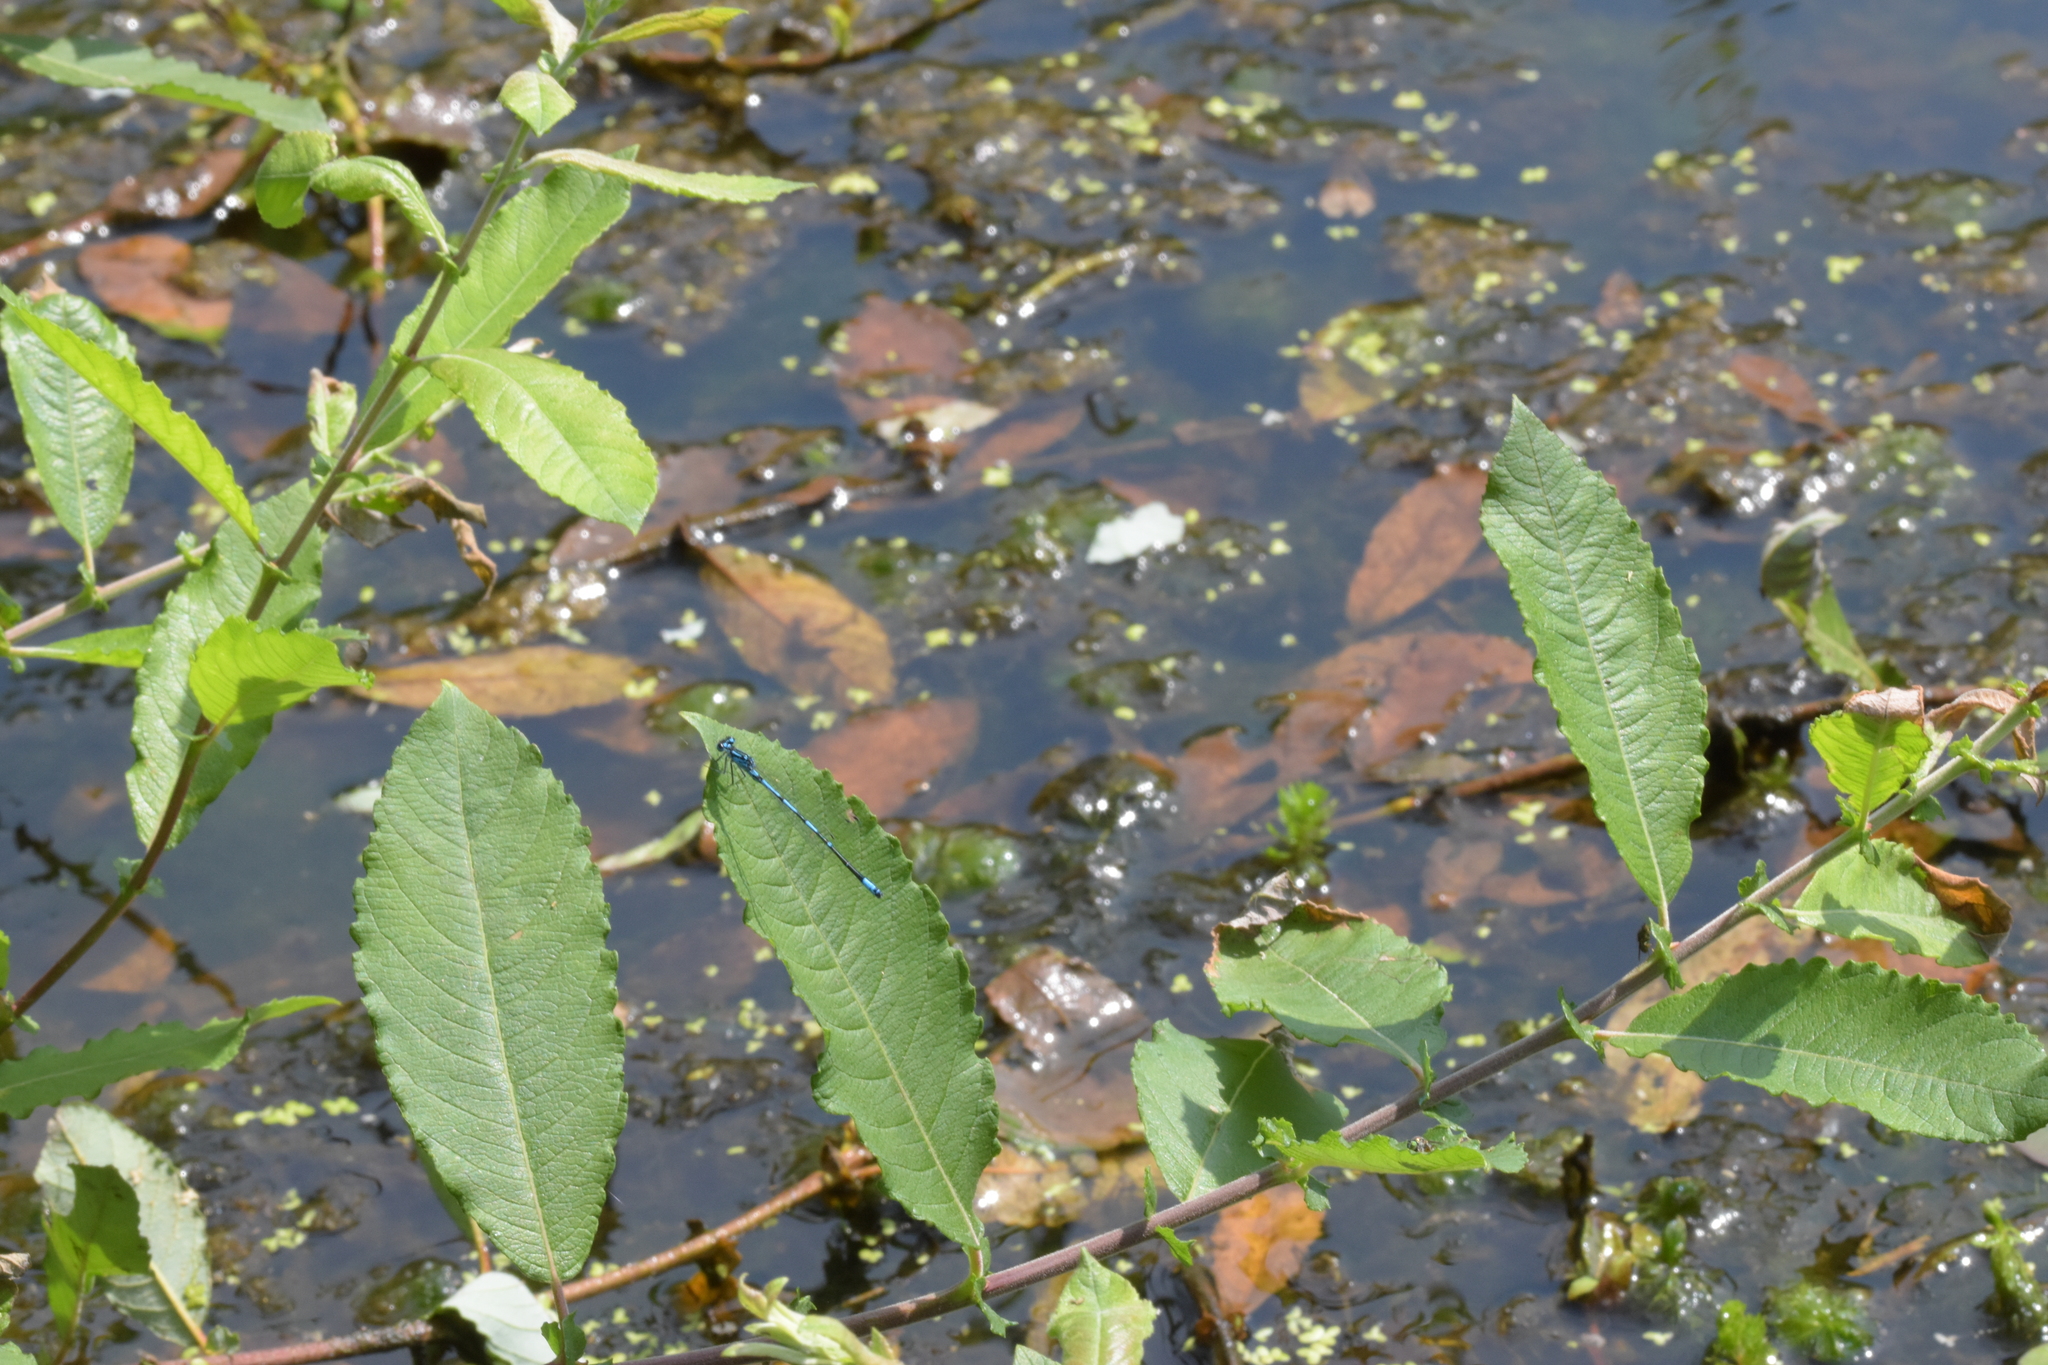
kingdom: Animalia
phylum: Arthropoda
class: Insecta
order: Odonata
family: Coenagrionidae
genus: Coenagrion
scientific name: Coenagrion pulchellum
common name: Variable bluet
